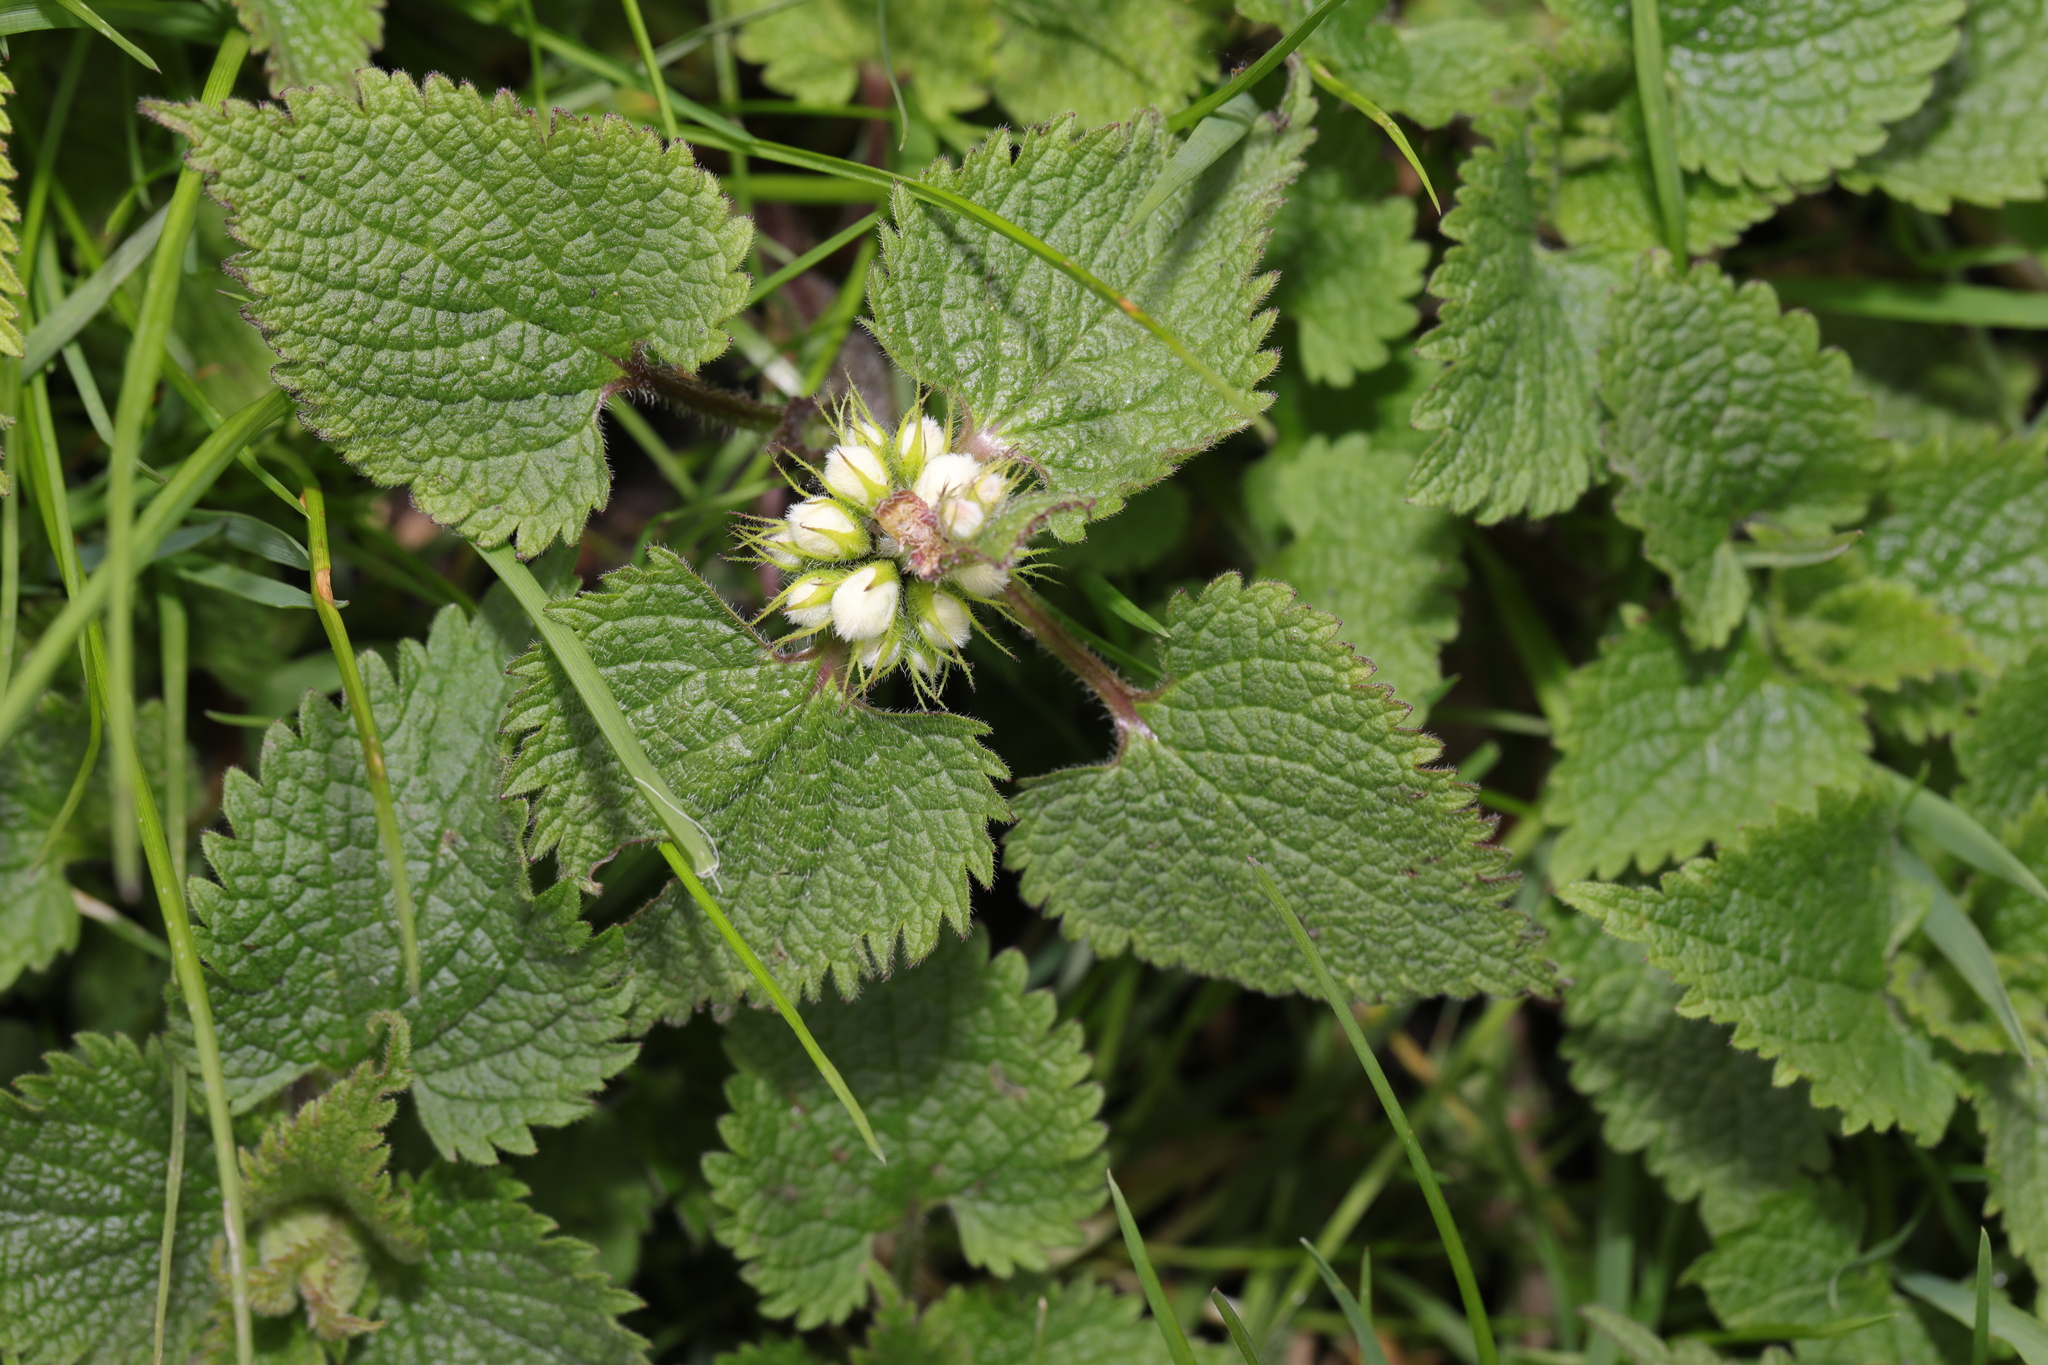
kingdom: Plantae
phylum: Tracheophyta
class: Magnoliopsida
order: Lamiales
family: Lamiaceae
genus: Lamium
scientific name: Lamium album
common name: White dead-nettle
